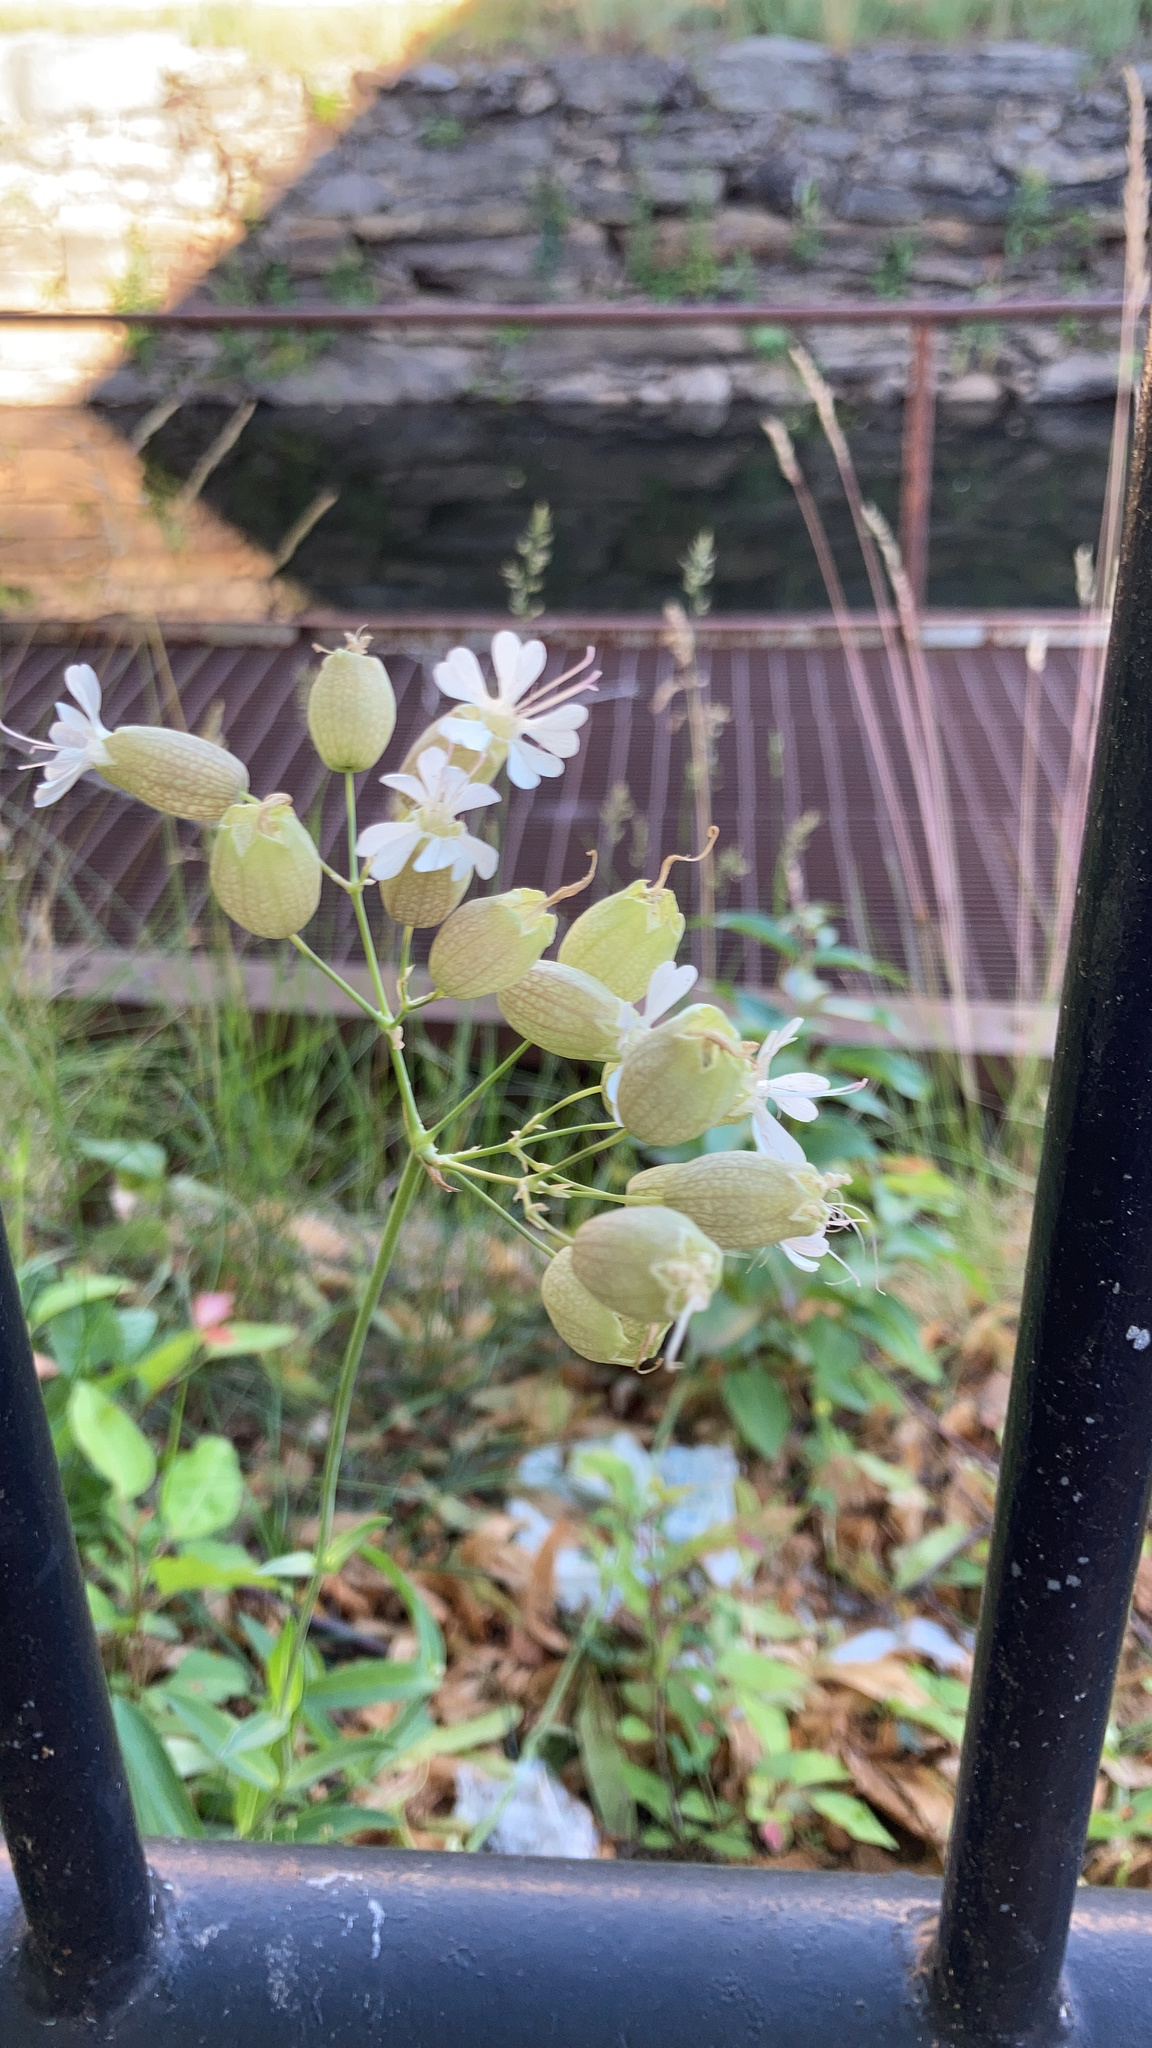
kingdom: Plantae
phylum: Tracheophyta
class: Magnoliopsida
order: Caryophyllales
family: Caryophyllaceae
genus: Silene
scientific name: Silene vulgaris
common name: Bladder campion
